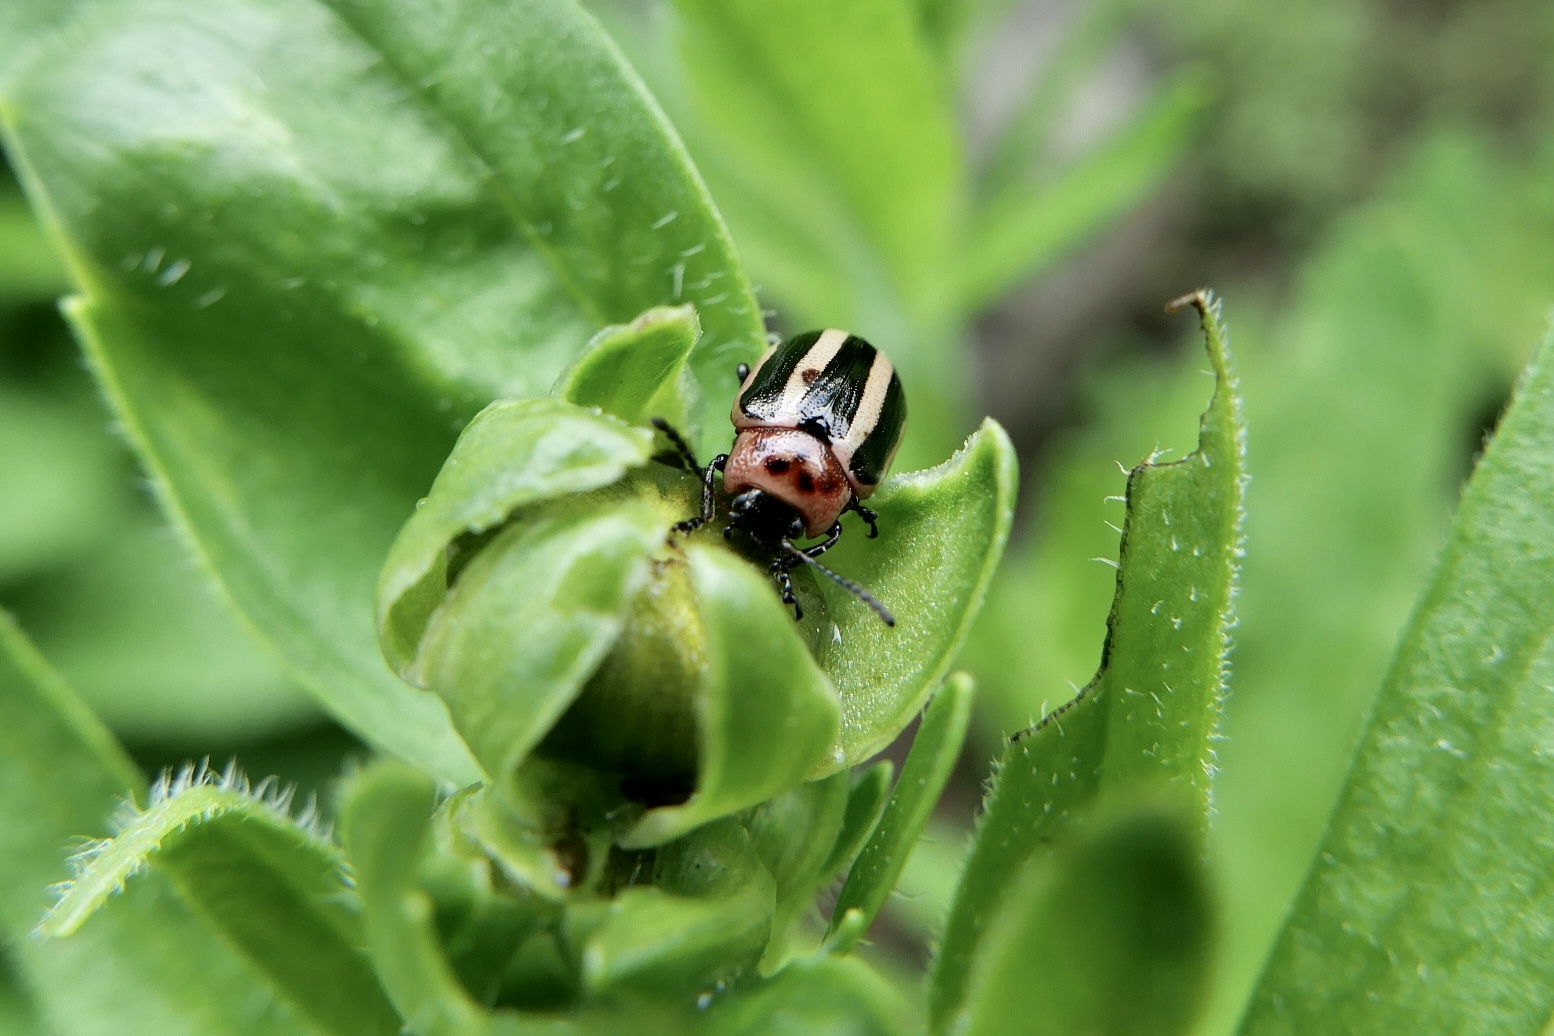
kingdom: Animalia
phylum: Arthropoda
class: Insecta
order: Coleoptera
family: Chrysomelidae
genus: Calligrapha
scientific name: Calligrapha californica
